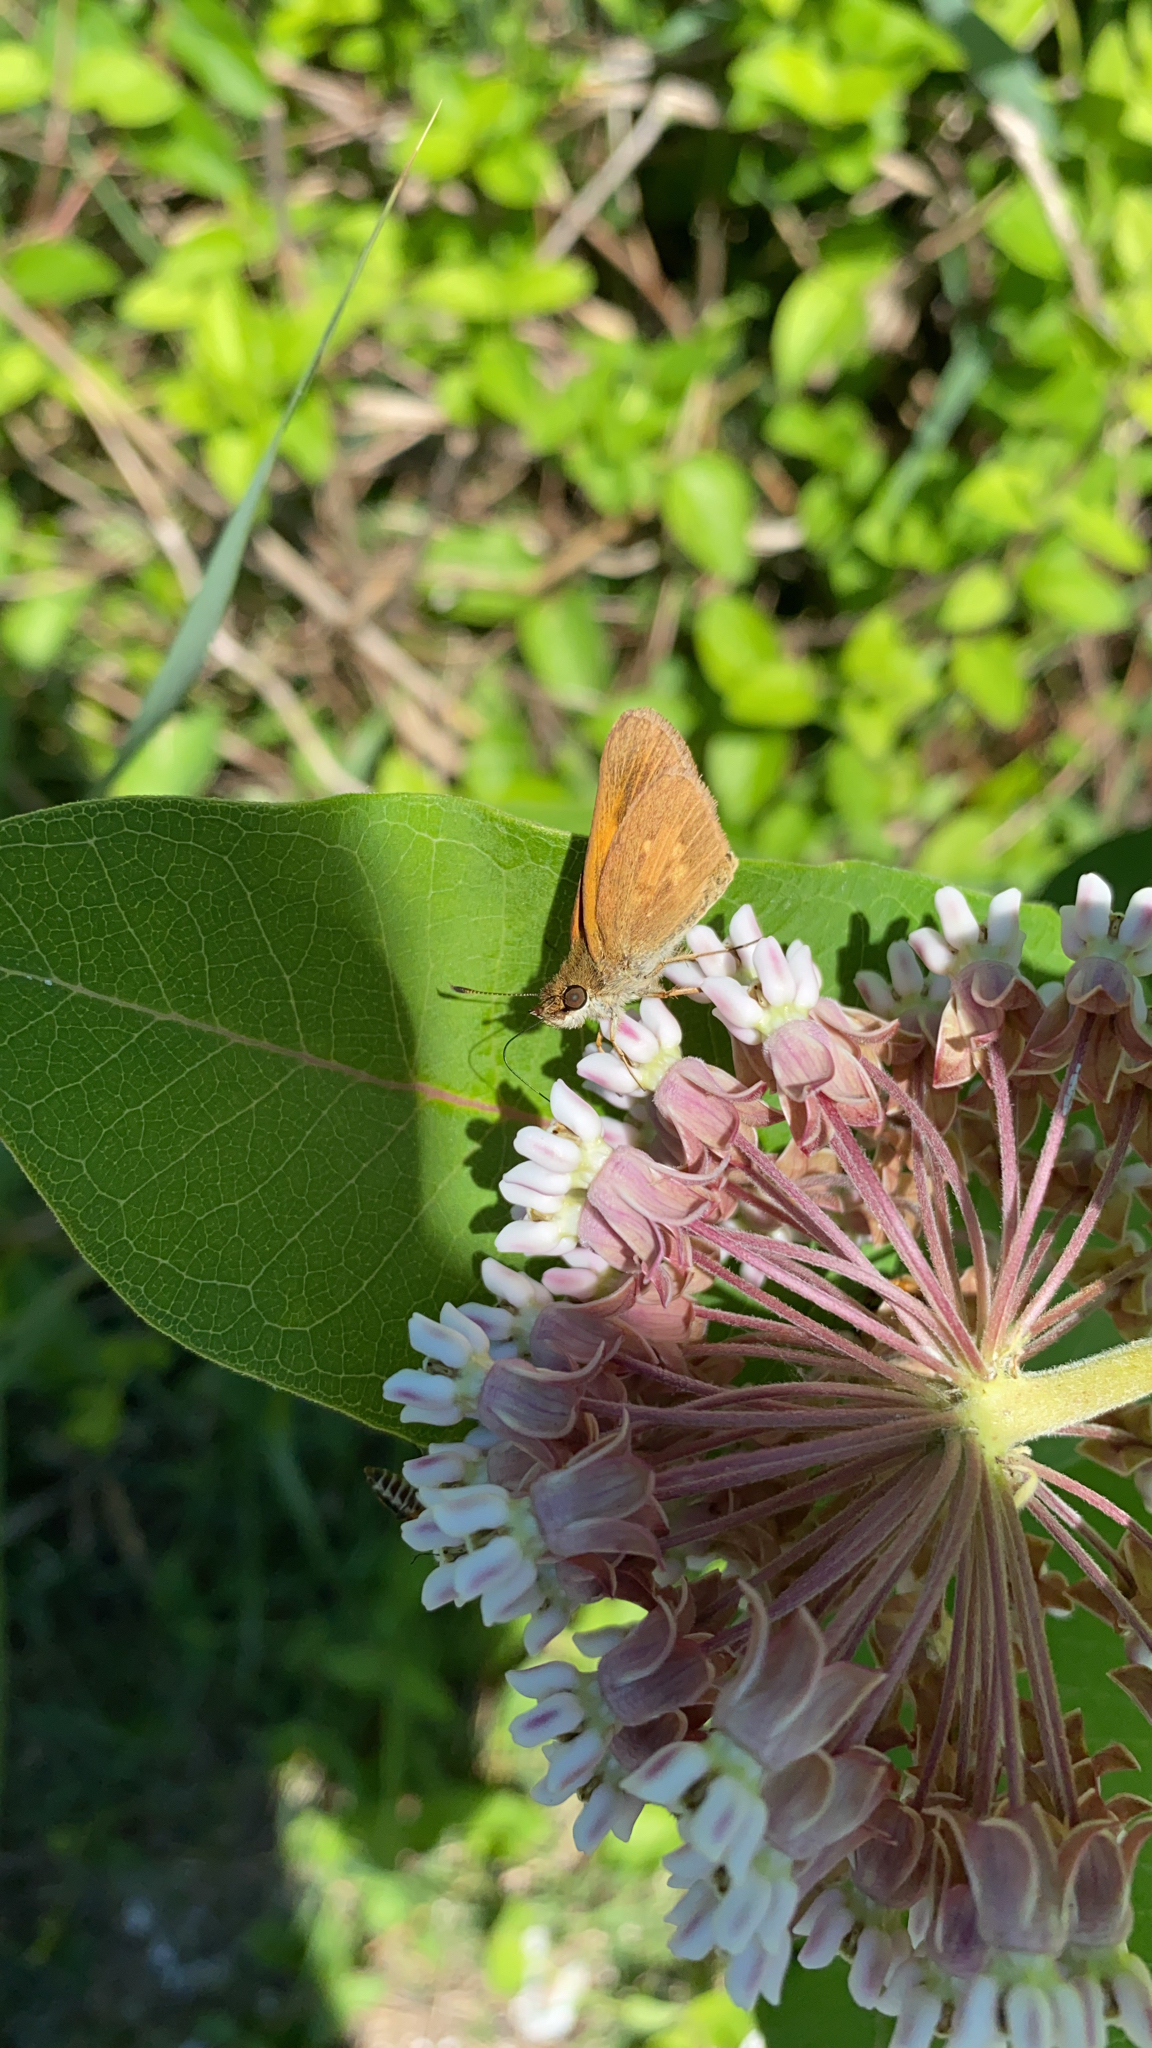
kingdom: Animalia
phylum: Arthropoda
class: Insecta
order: Lepidoptera
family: Hesperiidae
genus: Poanes
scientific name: Poanes viator
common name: Broad-winged skipper
